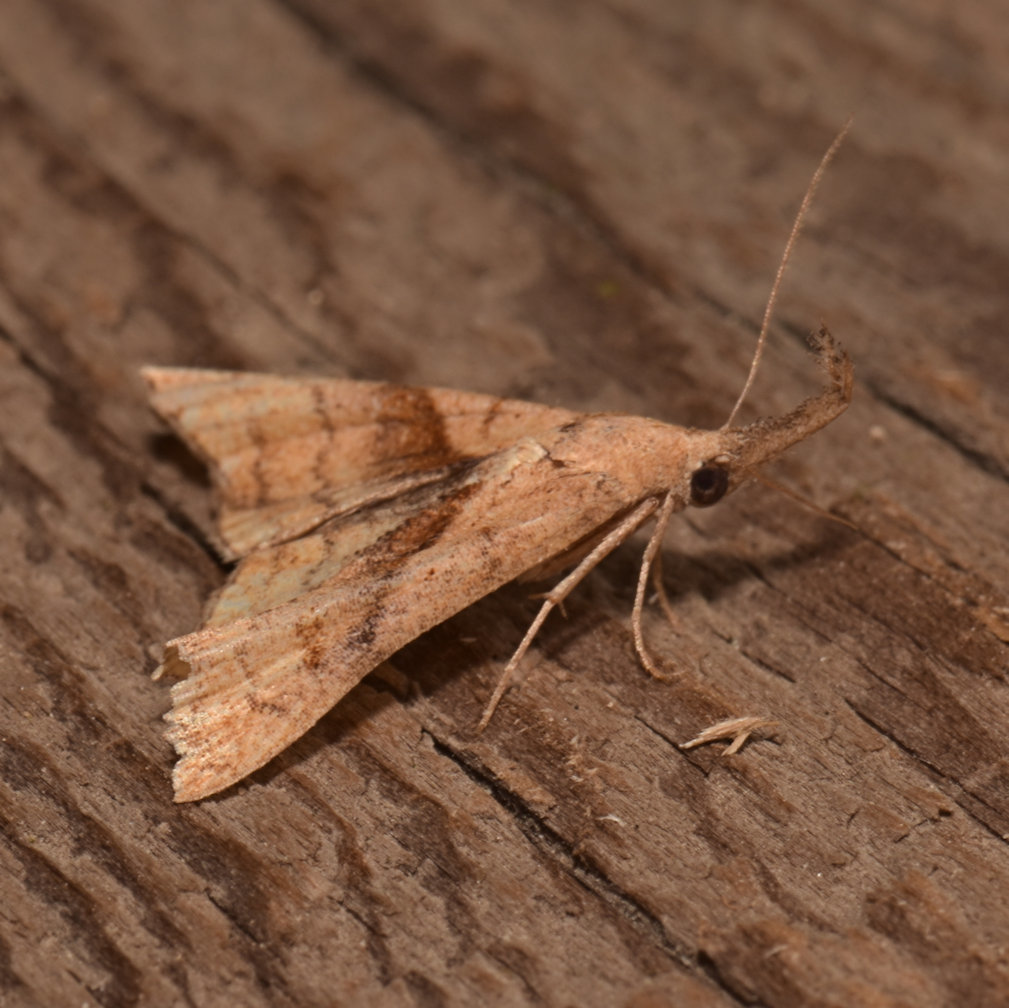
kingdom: Animalia
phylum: Arthropoda
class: Insecta
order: Lepidoptera
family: Erebidae
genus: Palthis
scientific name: Palthis angulalis
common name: Dark-spotted palthis moth
